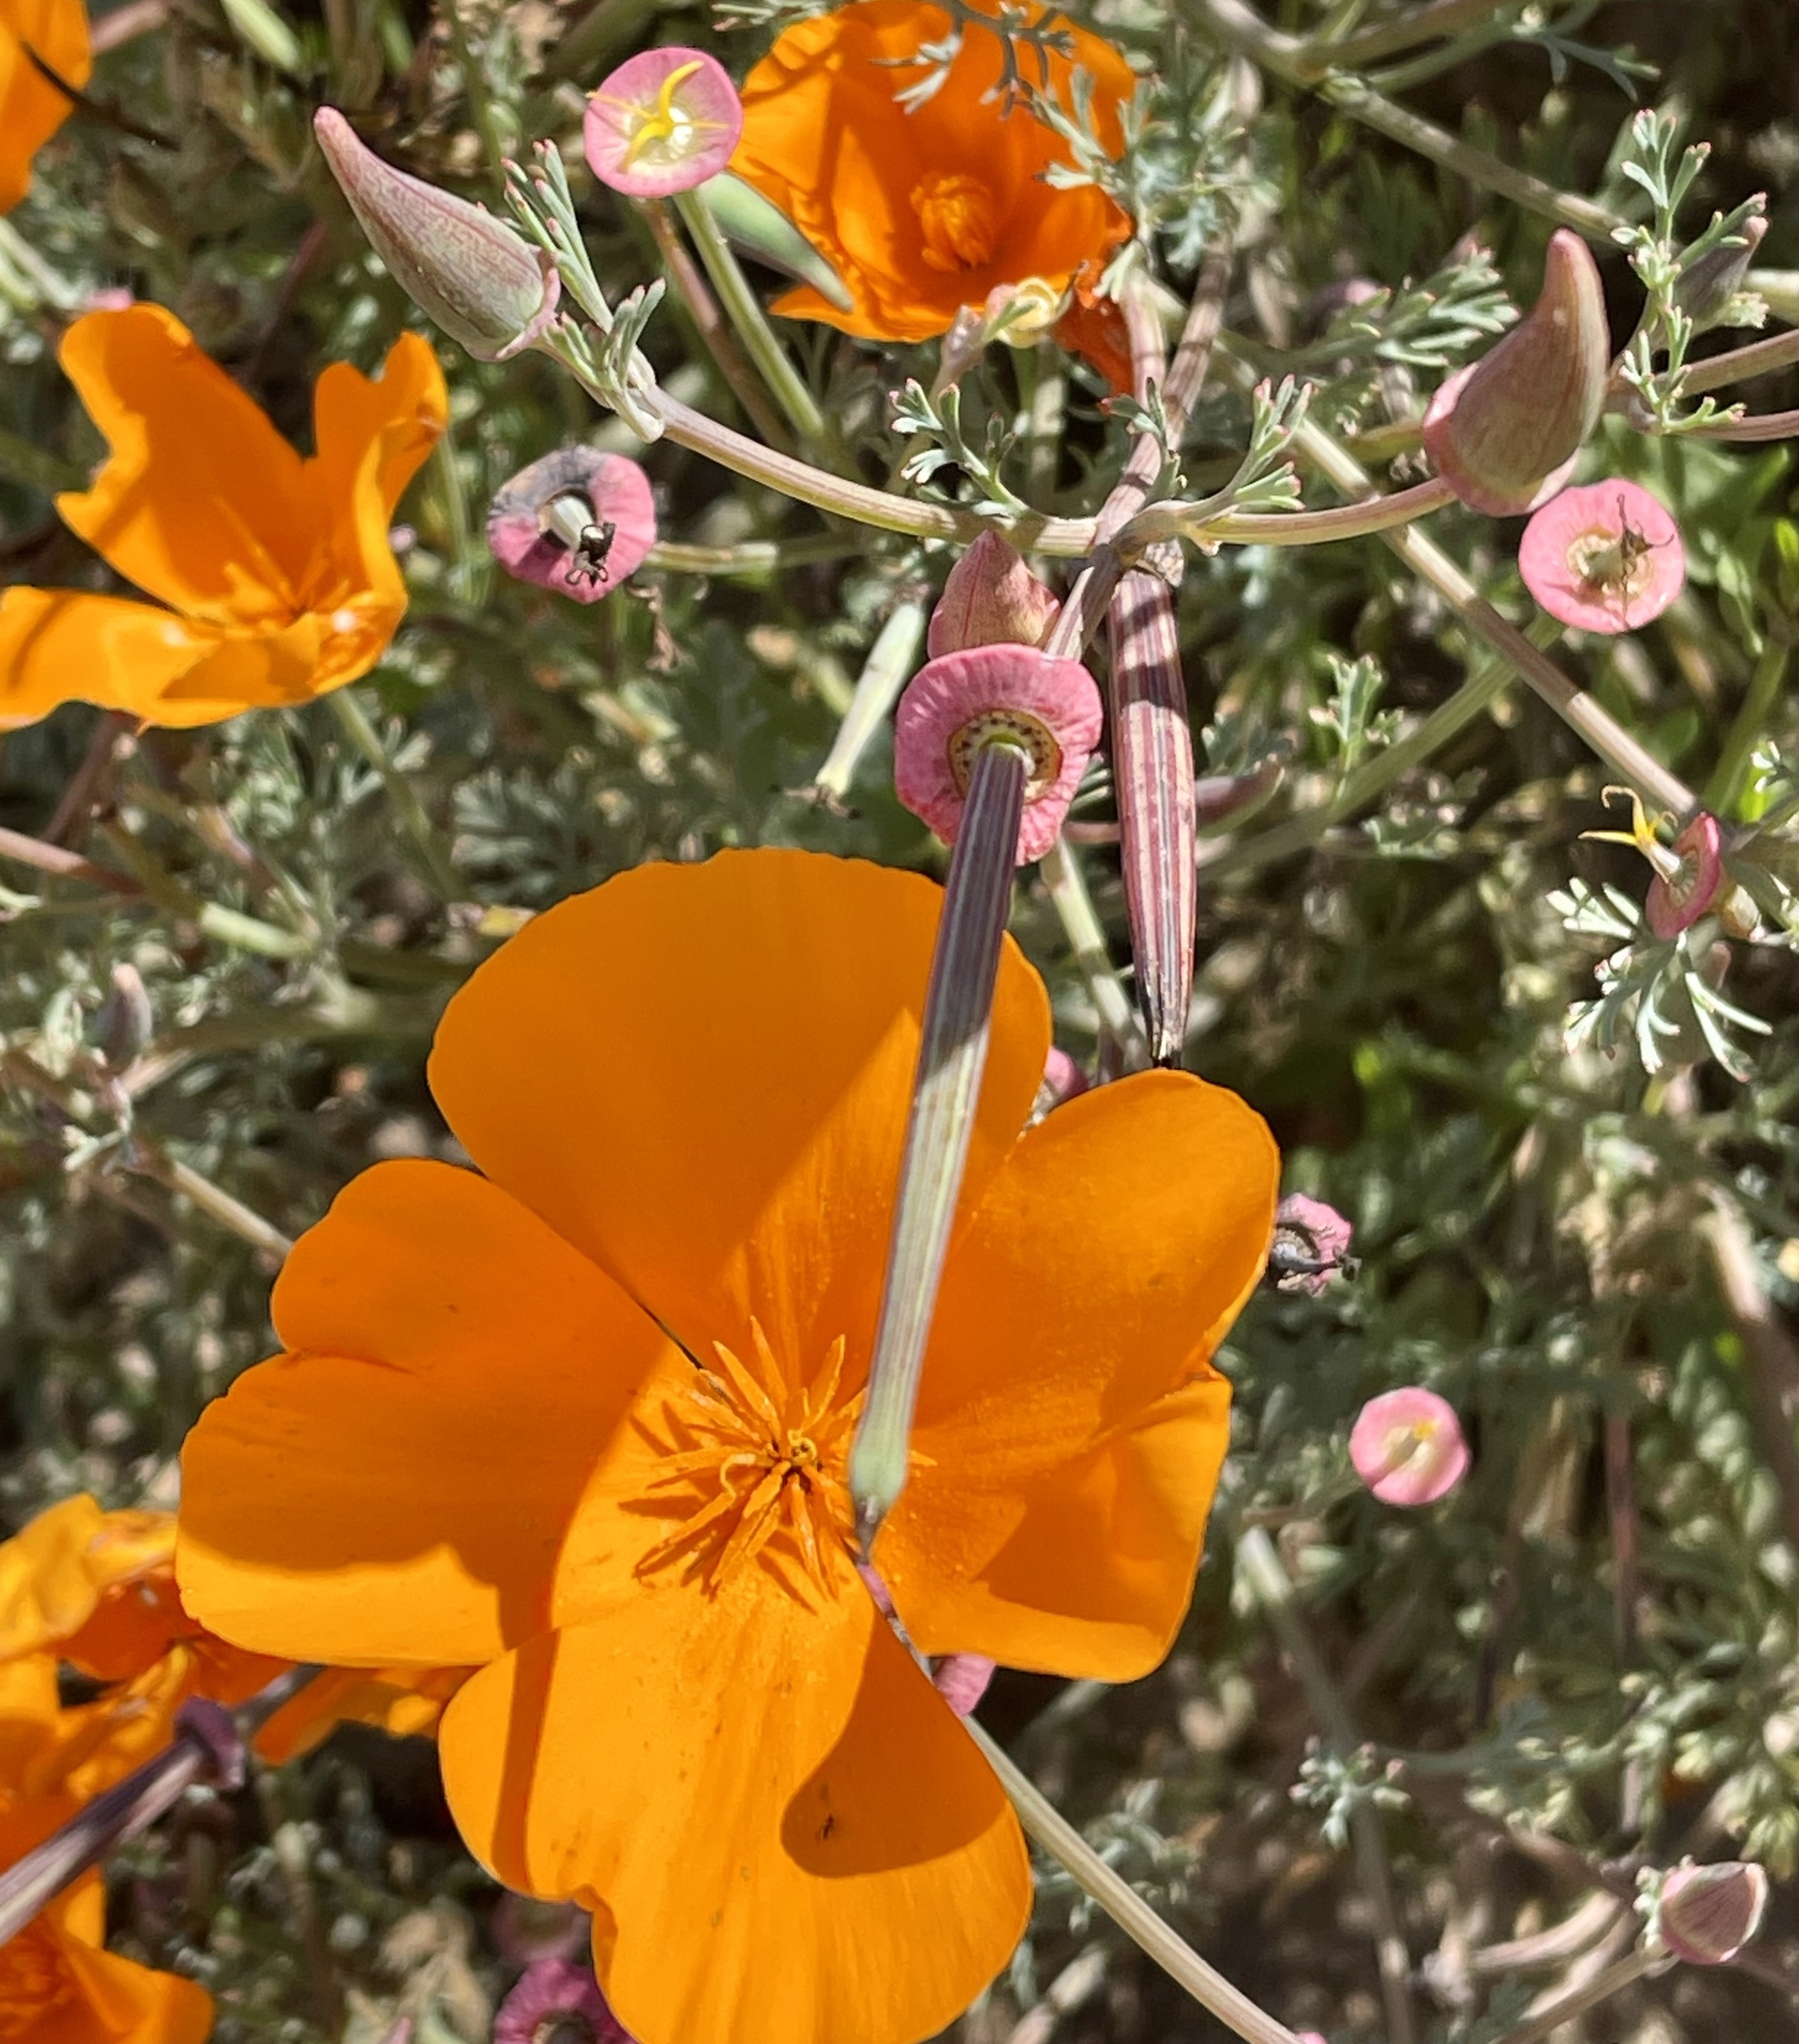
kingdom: Plantae
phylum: Tracheophyta
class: Magnoliopsida
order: Ranunculales
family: Papaveraceae
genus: Eschscholzia
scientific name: Eschscholzia californica
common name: California poppy
